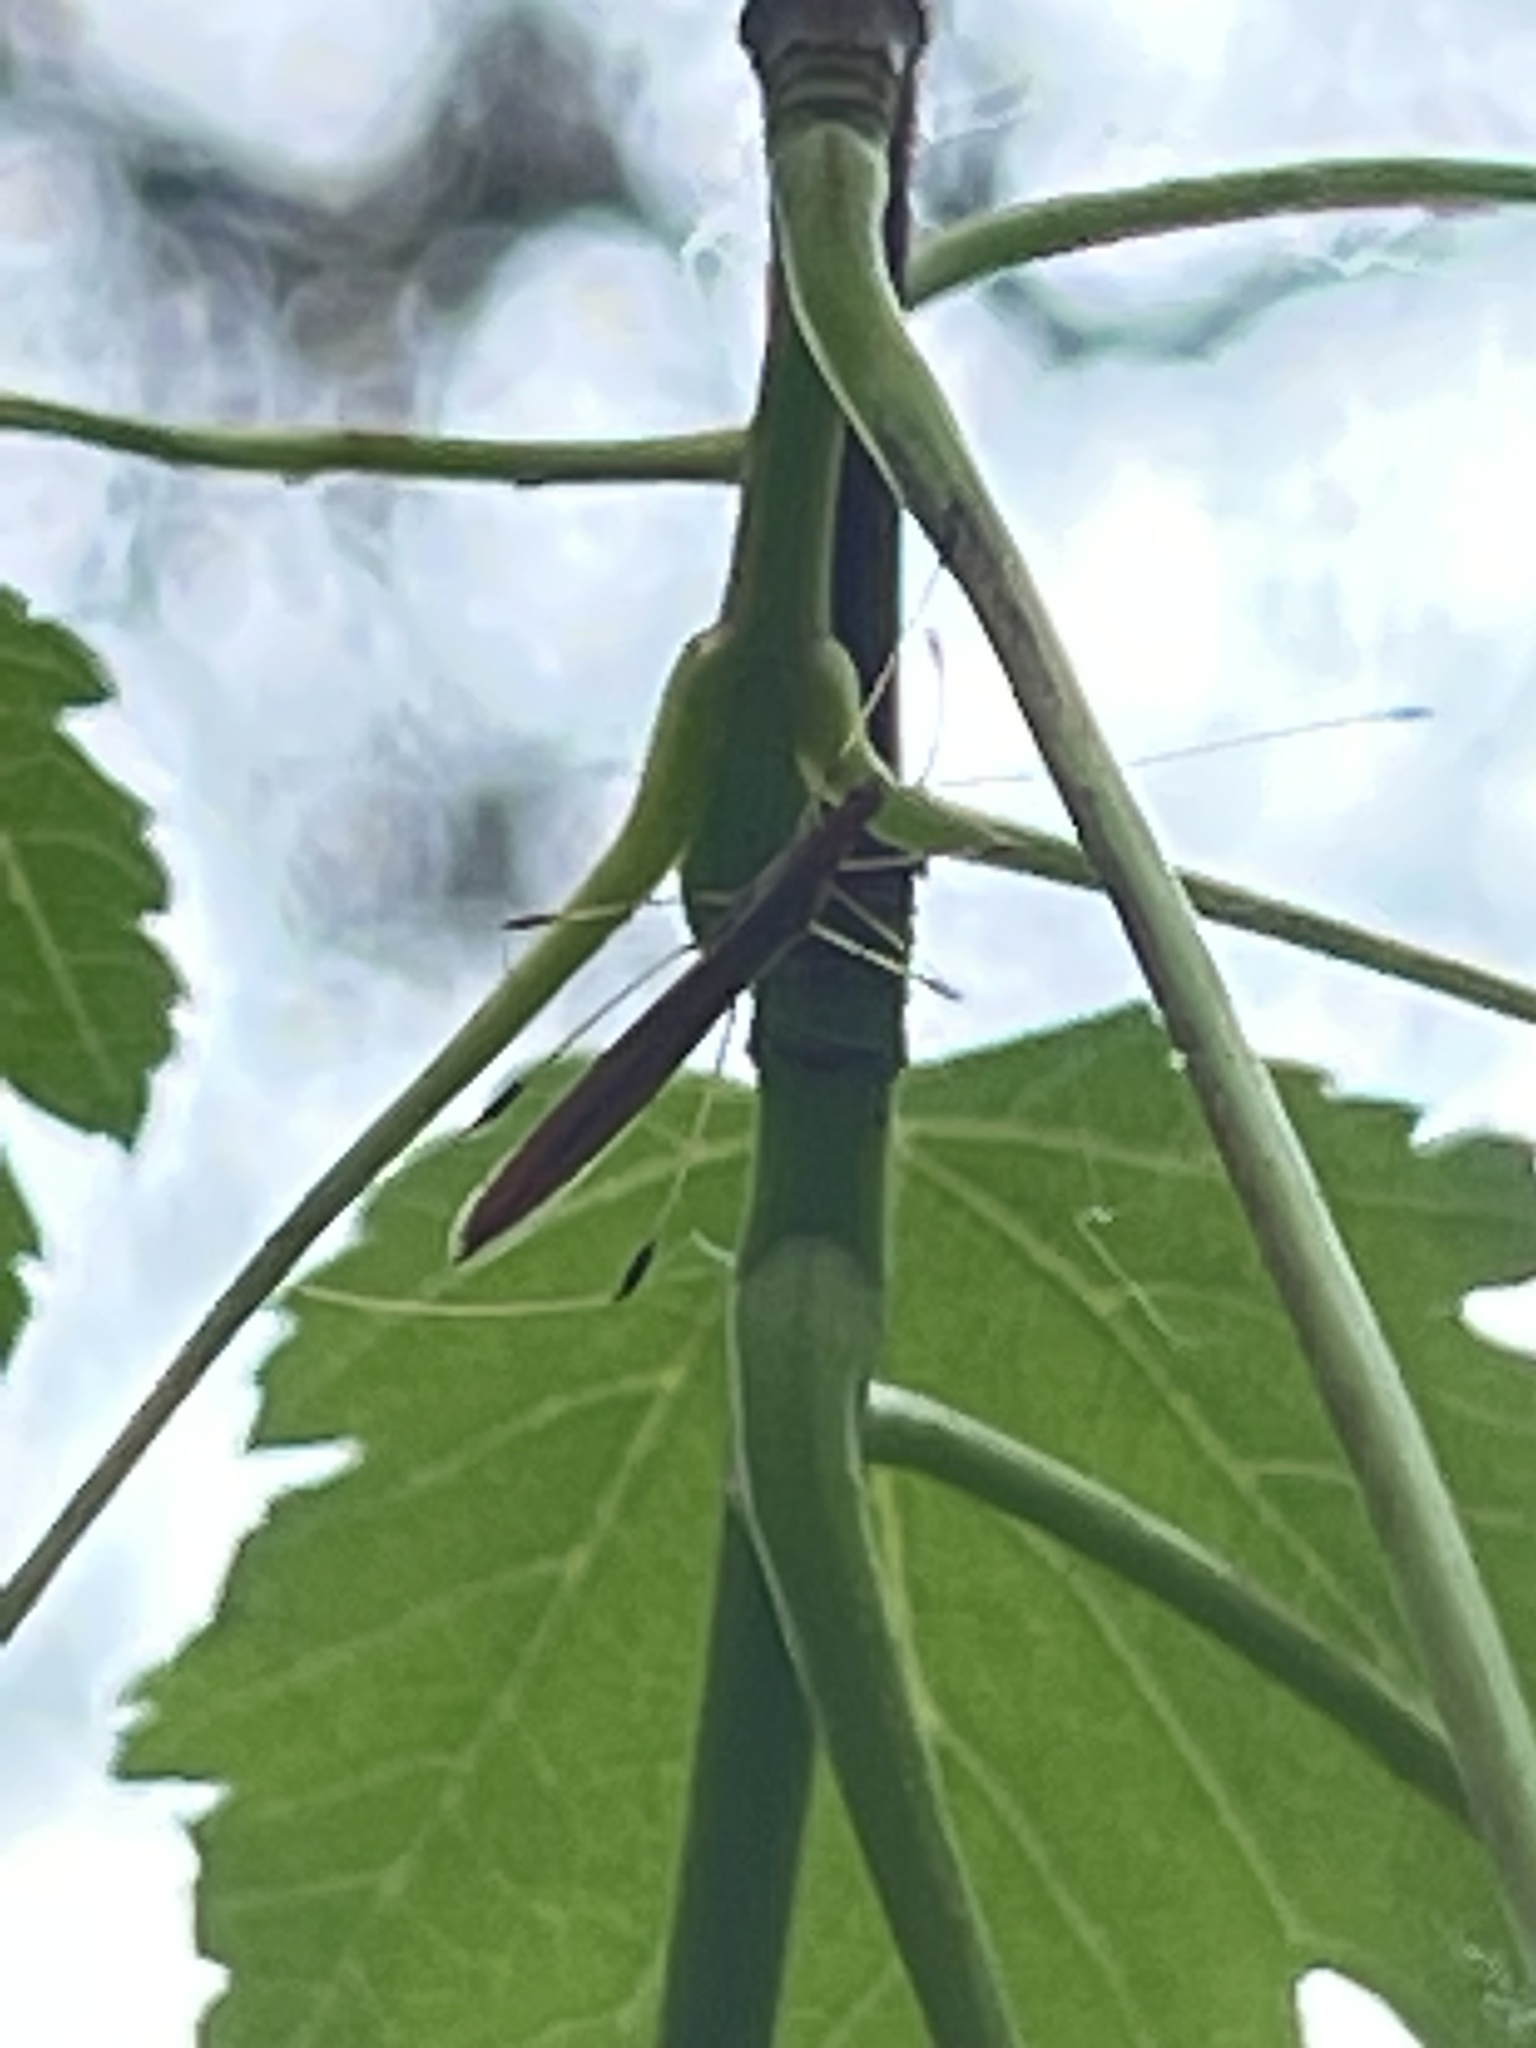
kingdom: Animalia
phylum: Arthropoda
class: Insecta
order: Hemiptera
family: Berytidae
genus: Neoneides
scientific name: Neoneides muticus
